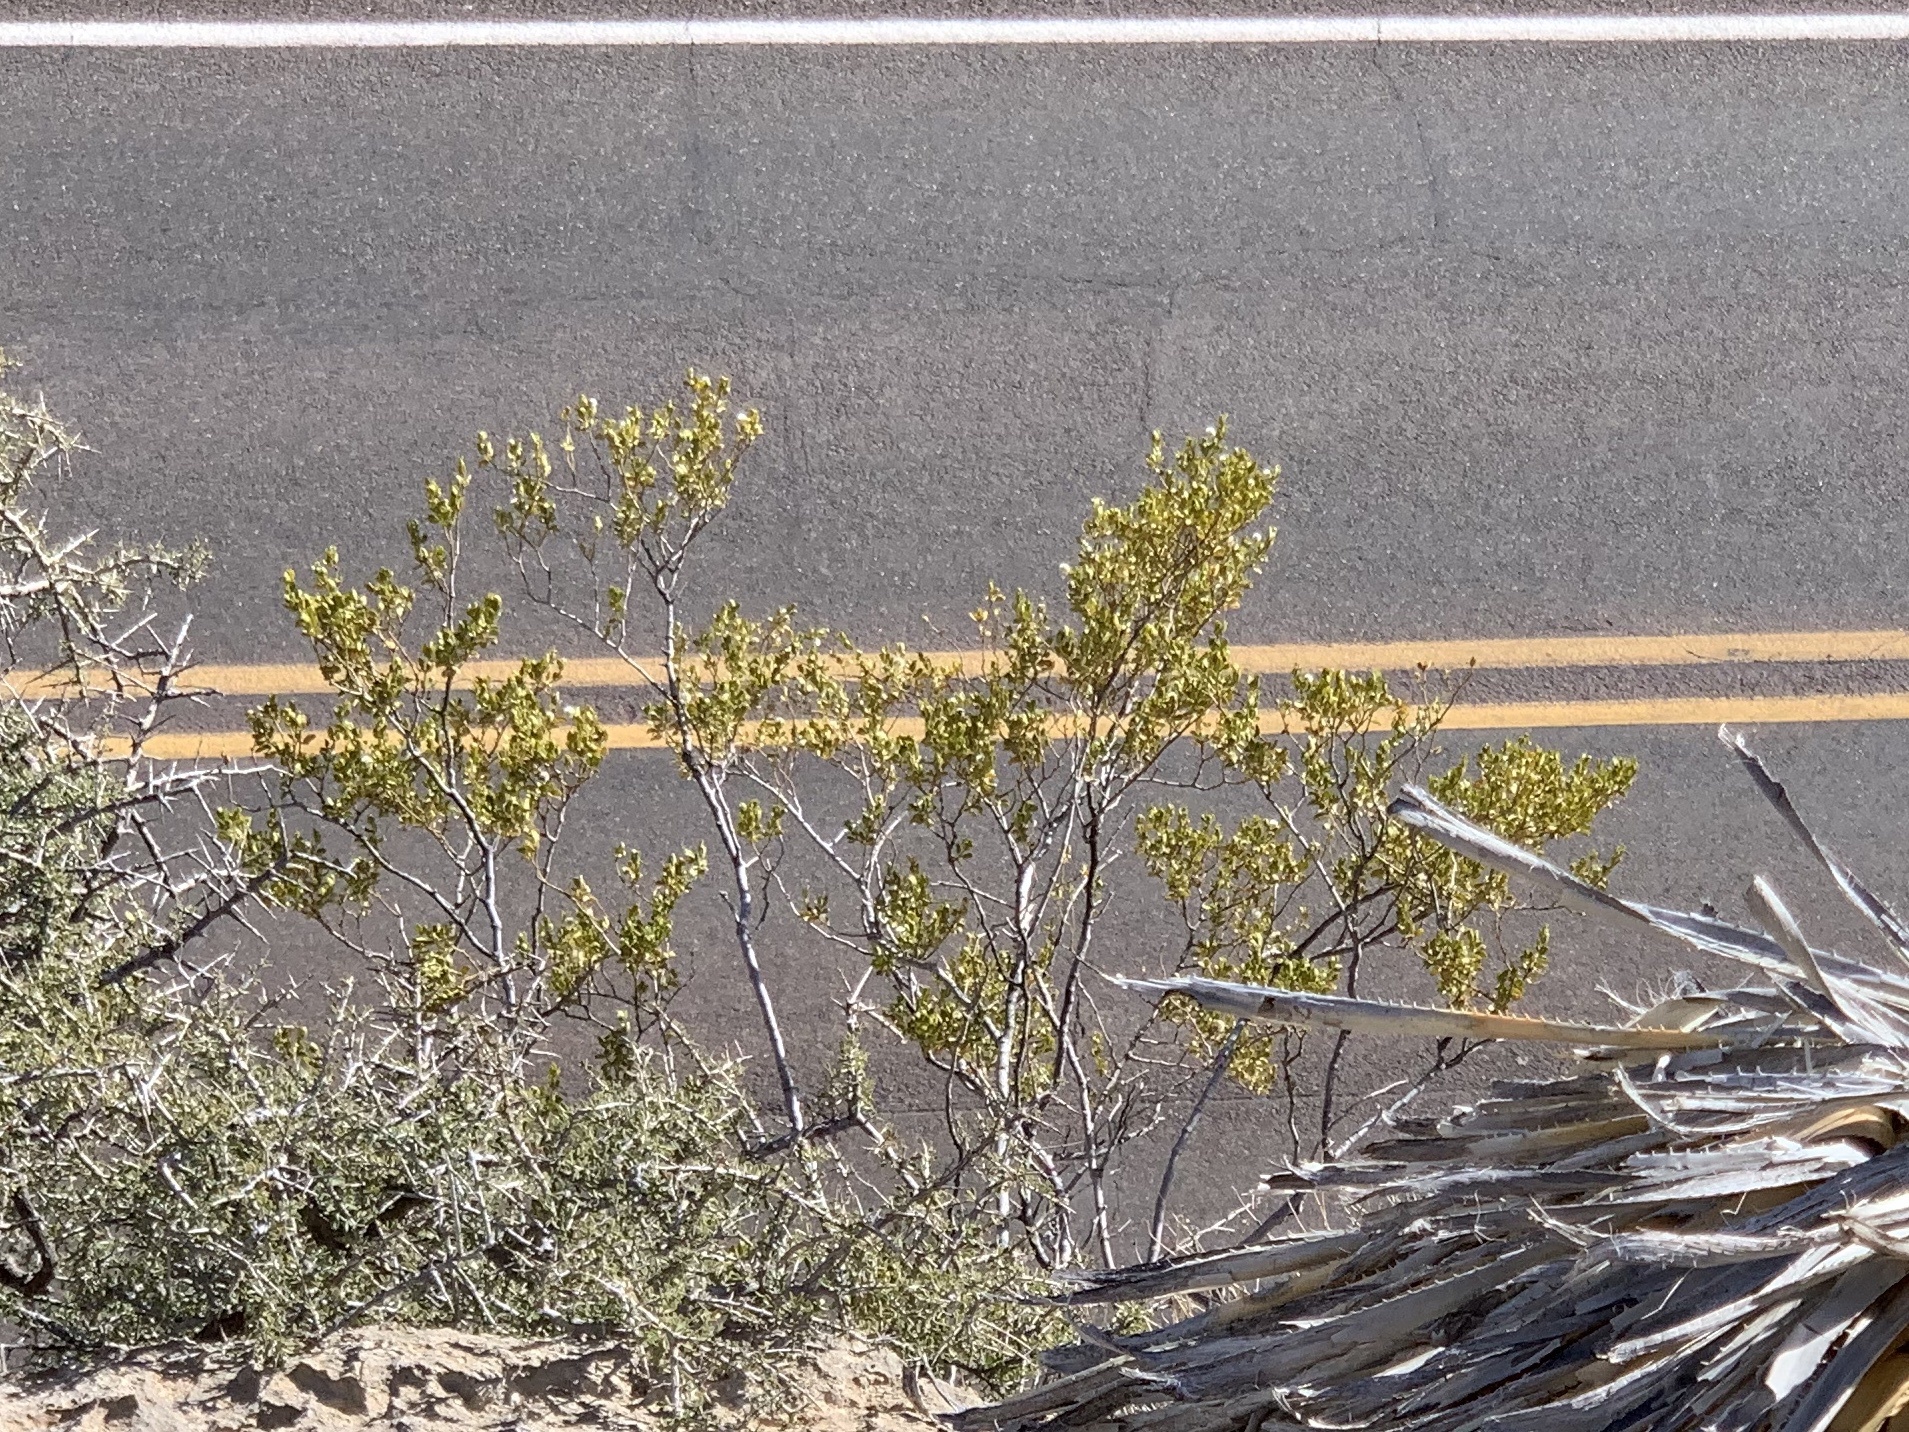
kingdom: Plantae
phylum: Tracheophyta
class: Magnoliopsida
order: Zygophyllales
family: Zygophyllaceae
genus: Larrea
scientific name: Larrea tridentata
